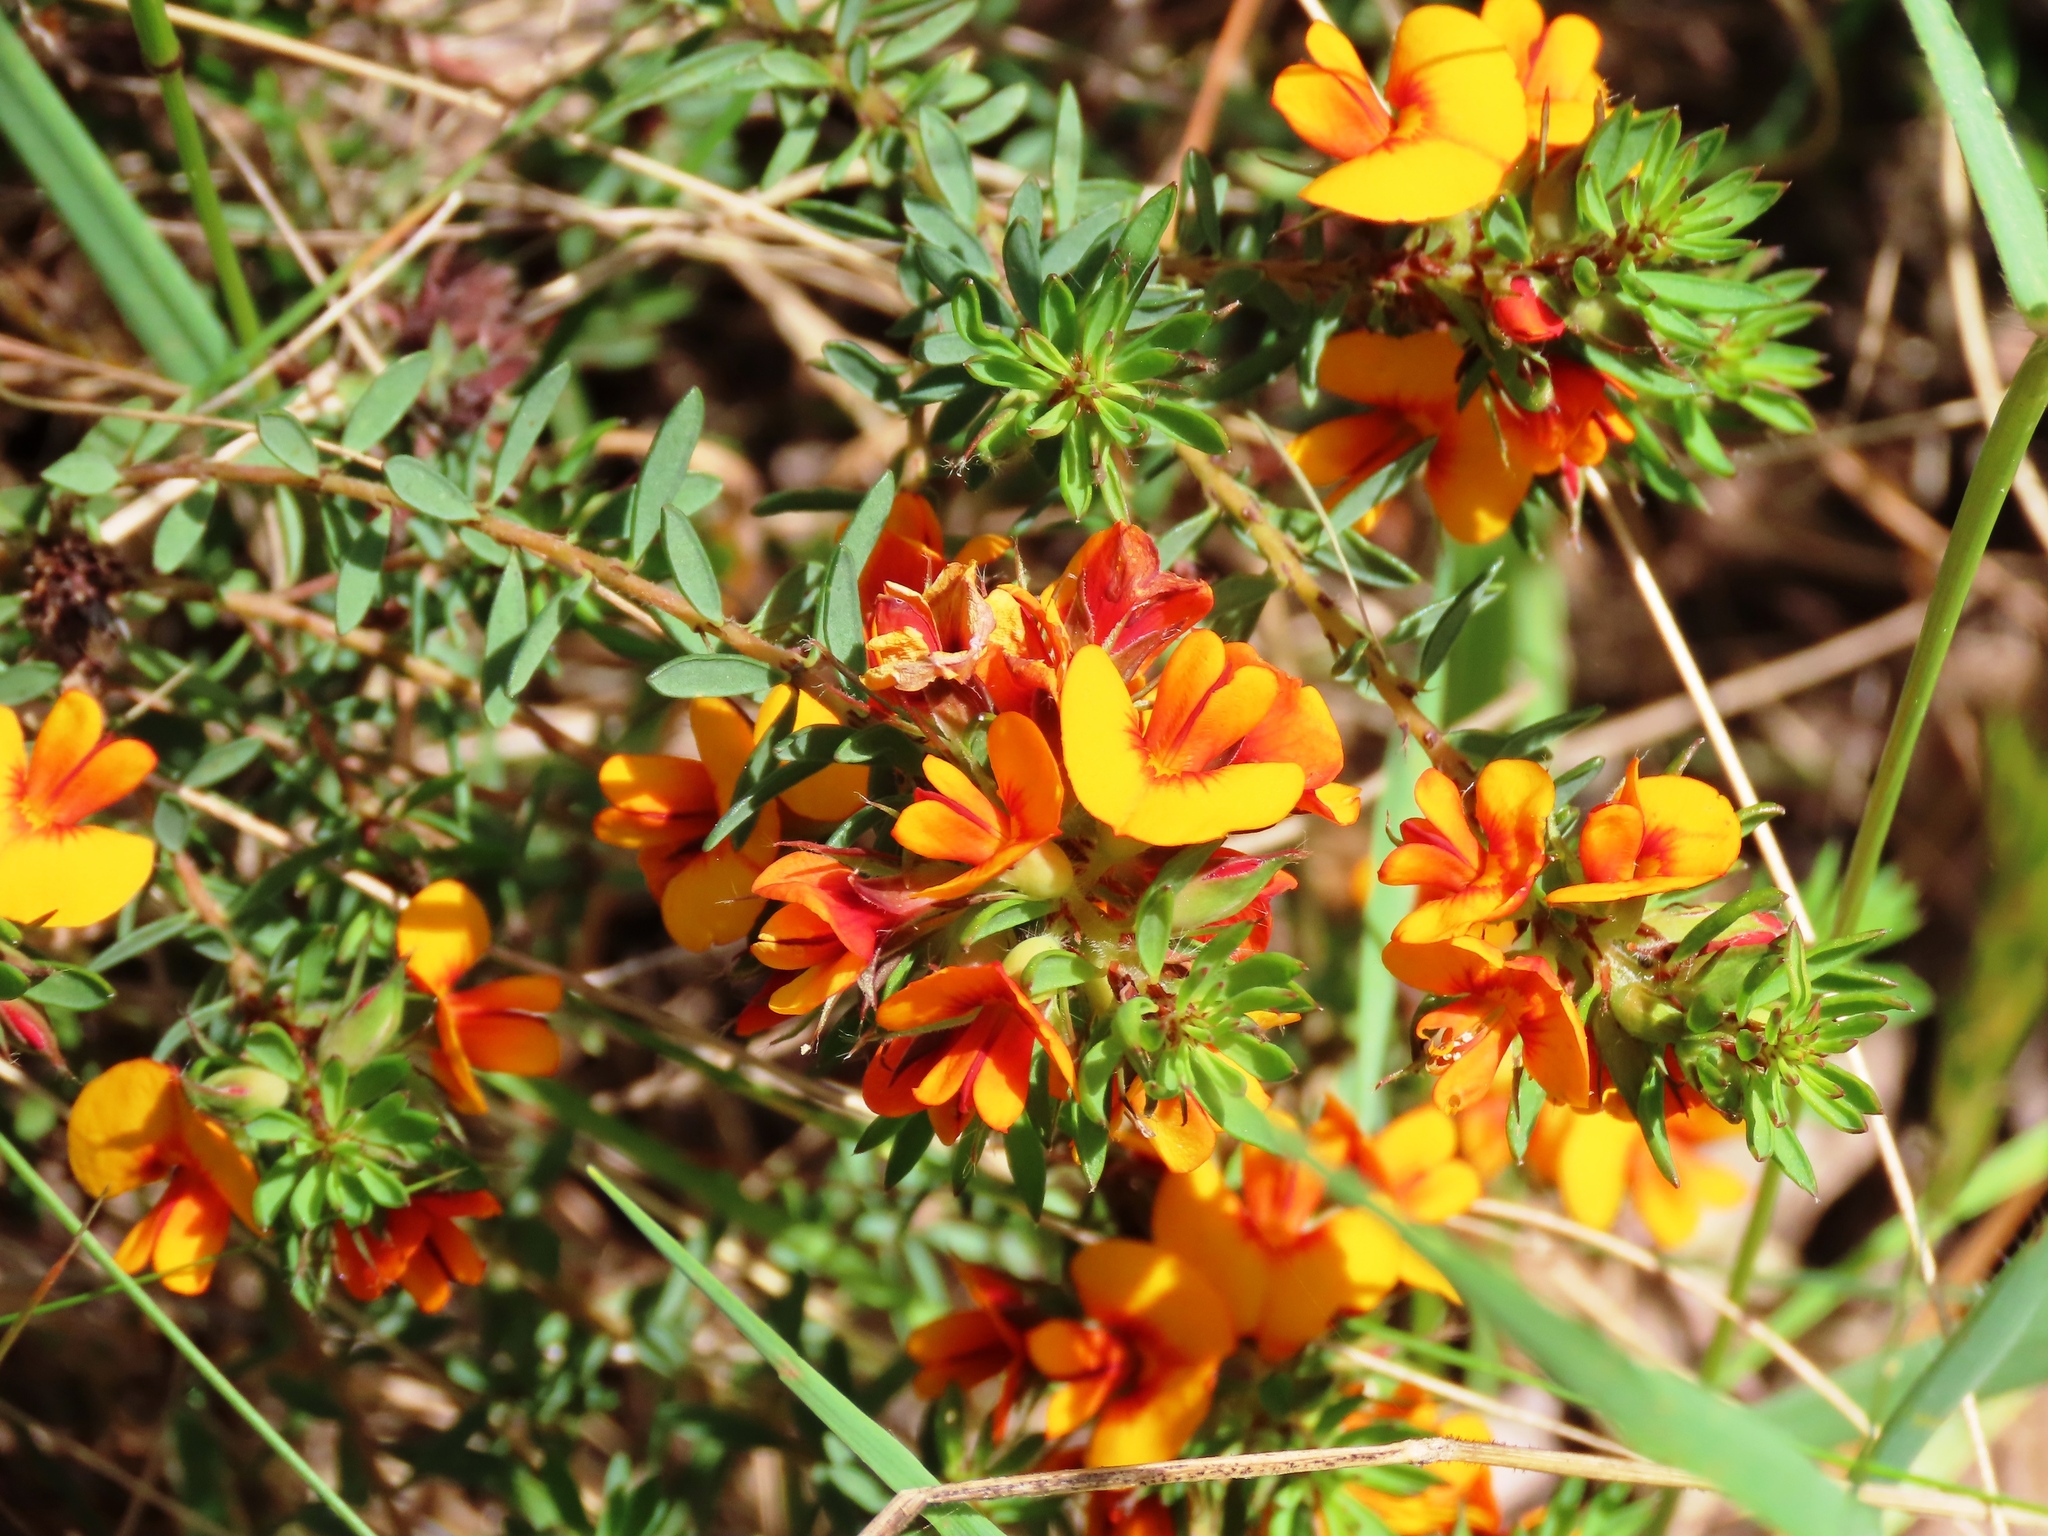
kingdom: Plantae
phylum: Tracheophyta
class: Magnoliopsida
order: Fabales
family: Fabaceae
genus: Pultenaea
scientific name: Pultenaea humilis
